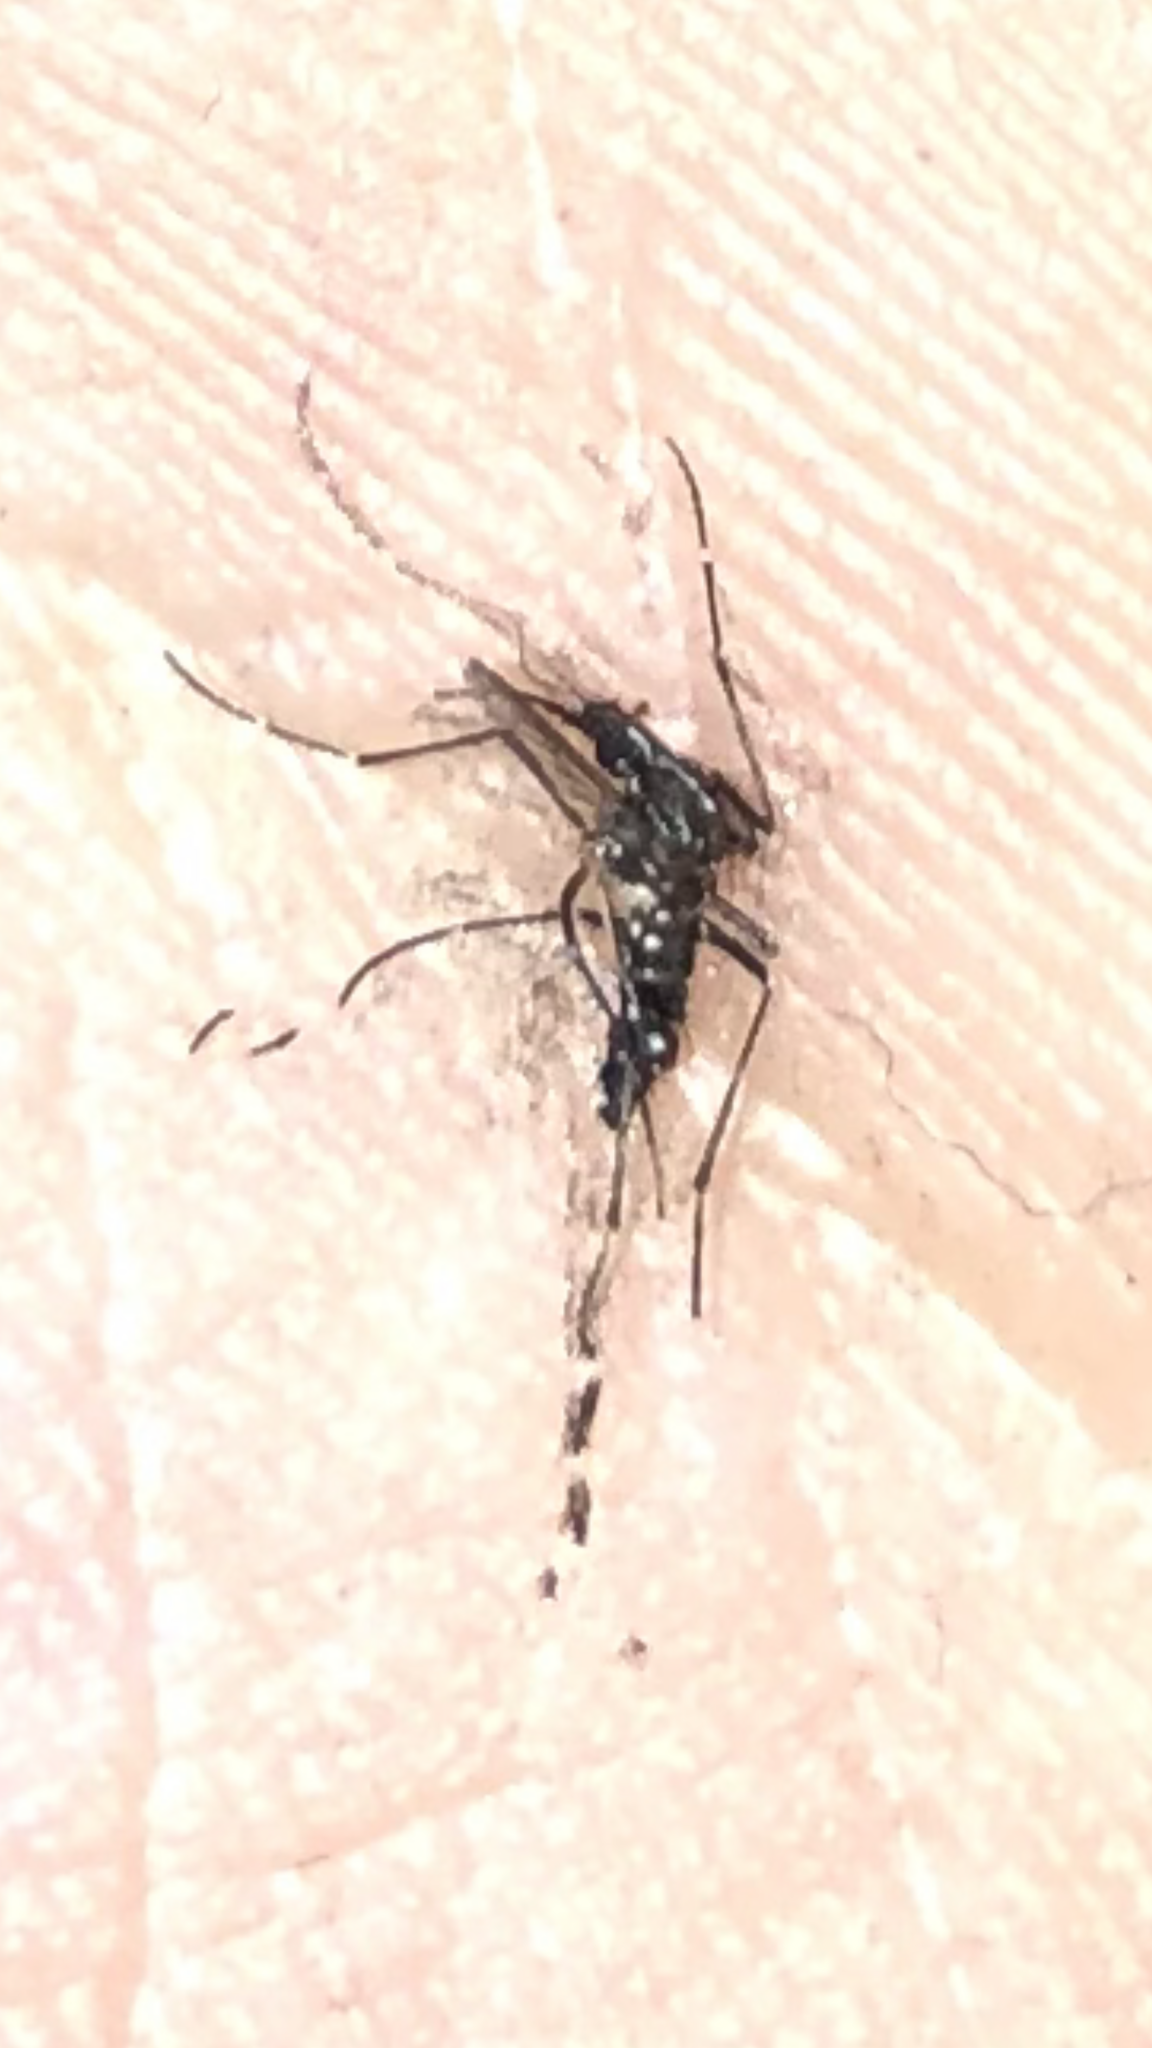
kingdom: Animalia
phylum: Arthropoda
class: Insecta
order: Diptera
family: Culicidae
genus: Aedes
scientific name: Aedes albopictus
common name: Tiger mosquito
